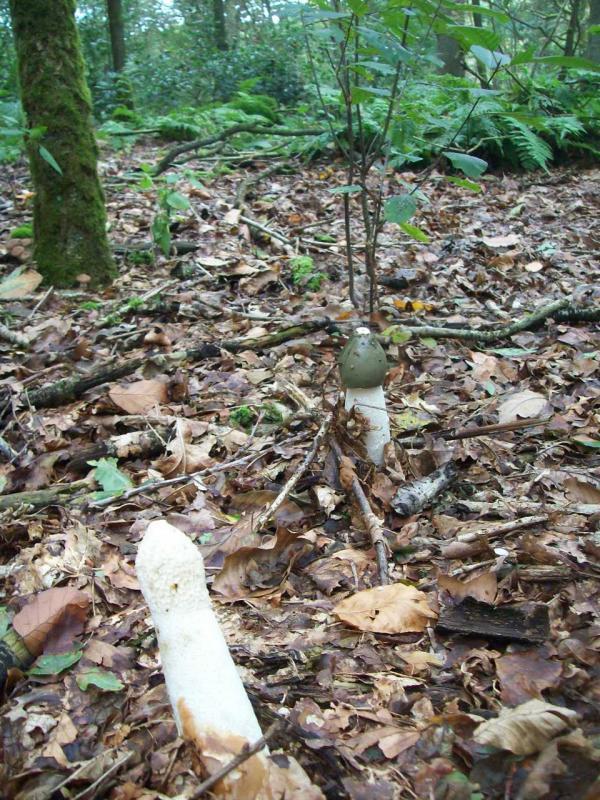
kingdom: Fungi
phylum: Basidiomycota
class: Agaricomycetes
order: Phallales
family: Phallaceae
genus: Phallus
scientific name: Phallus impudicus
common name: Common stinkhorn
